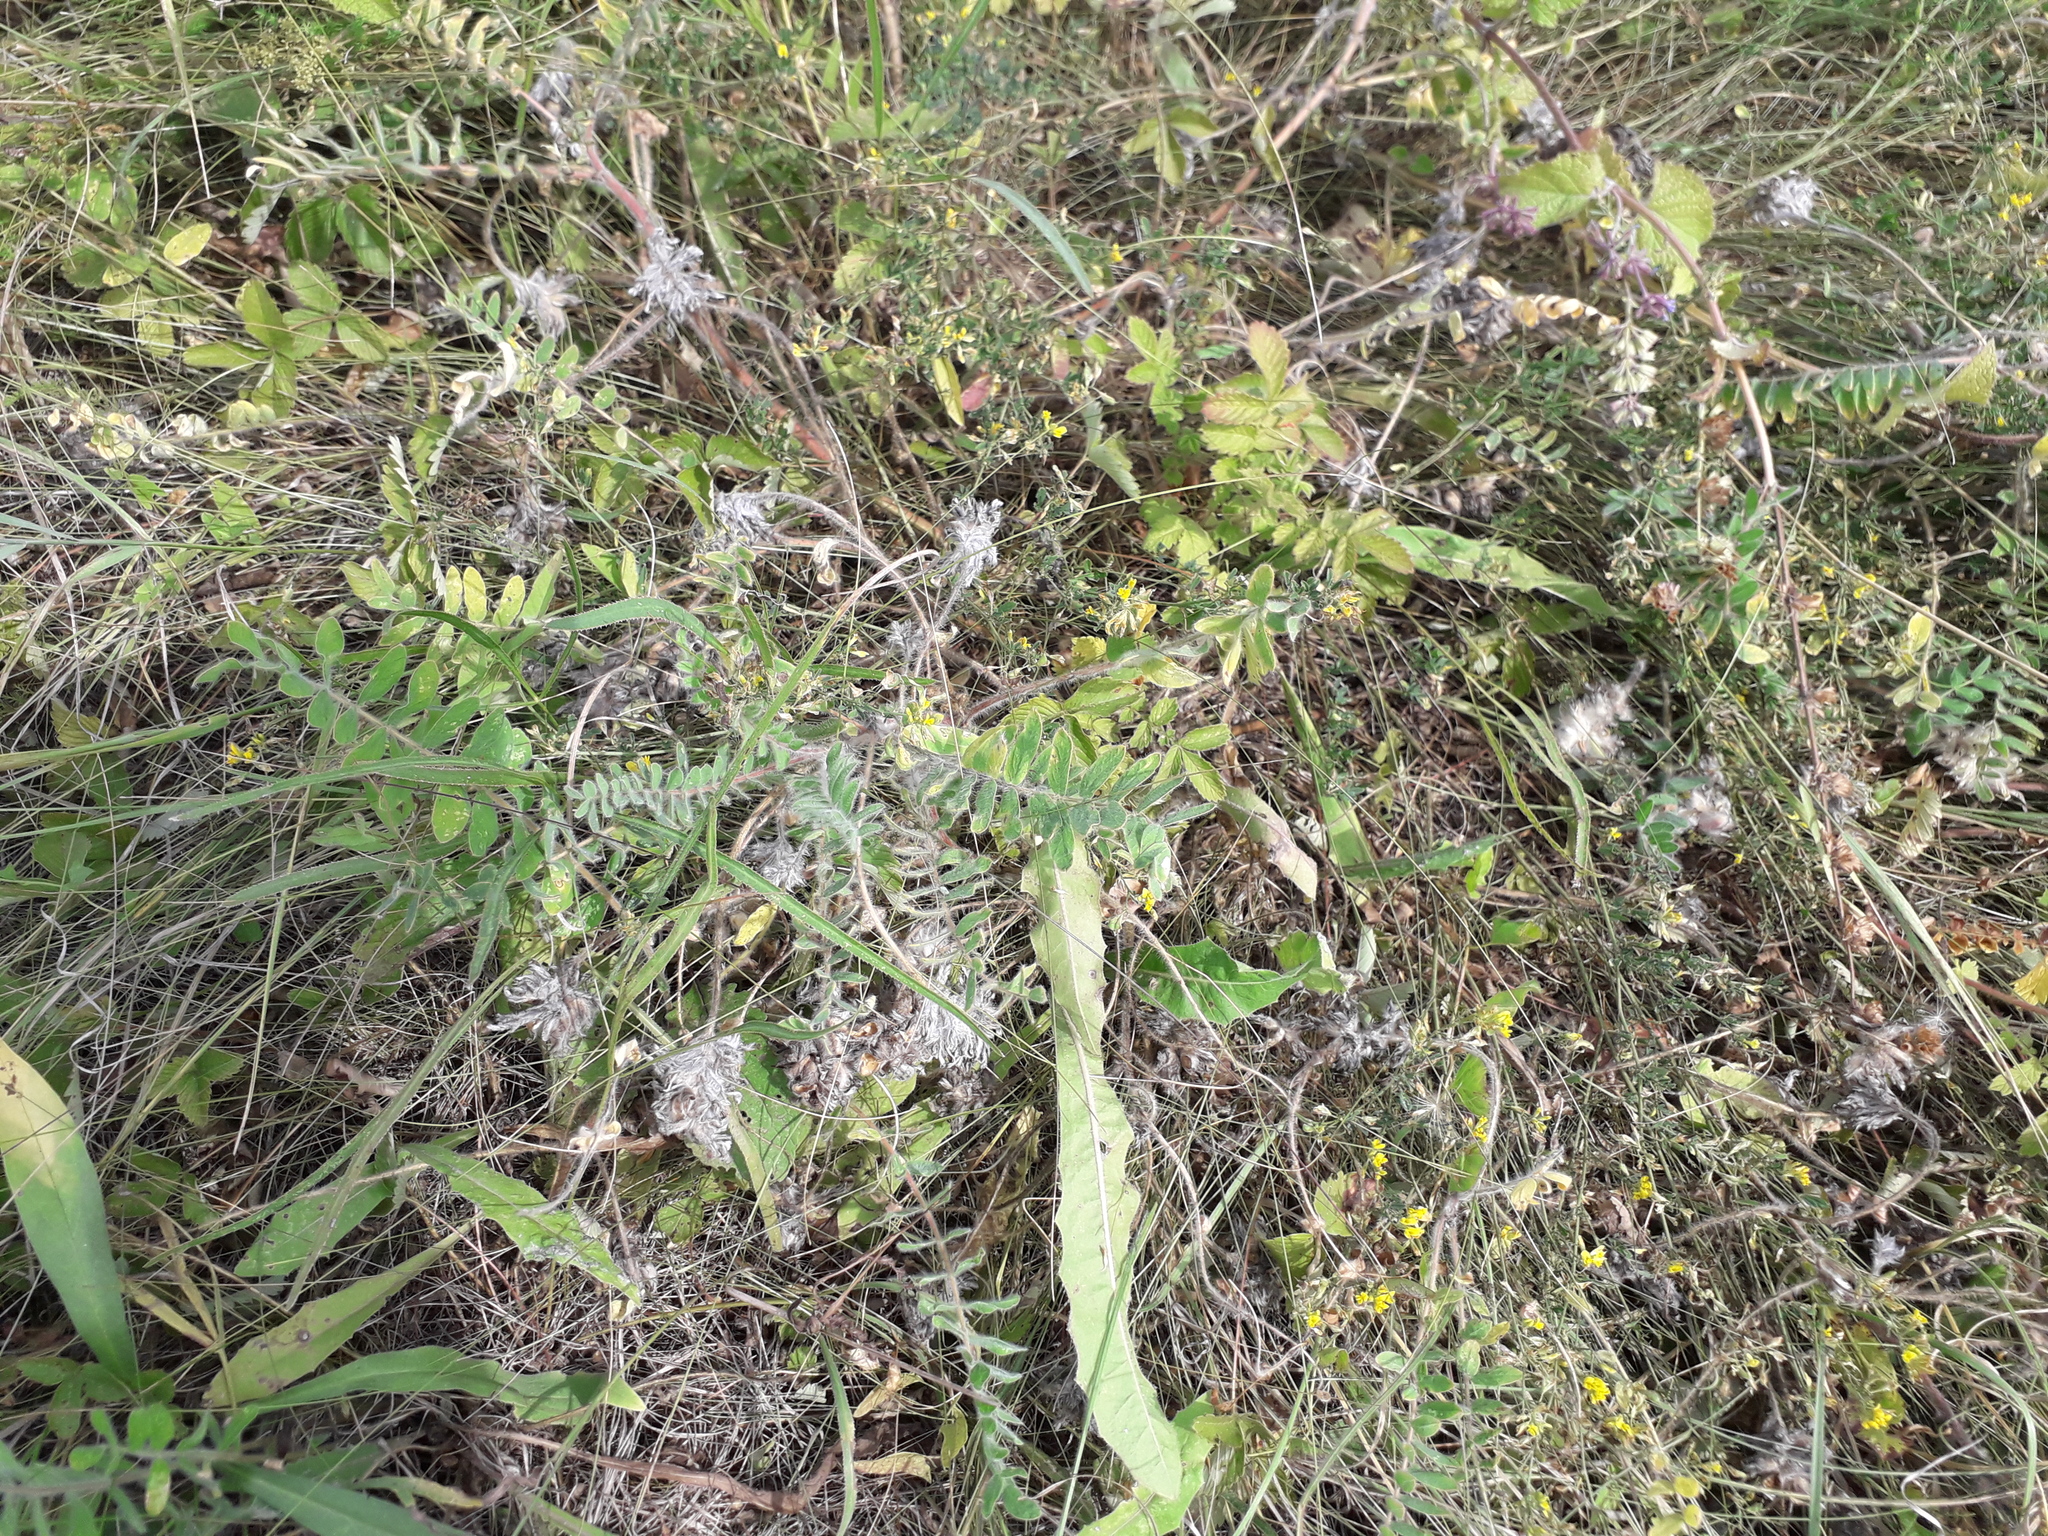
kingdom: Plantae
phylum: Tracheophyta
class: Magnoliopsida
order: Fabales
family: Fabaceae
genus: Astragalus
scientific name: Astragalus dasyanthus
